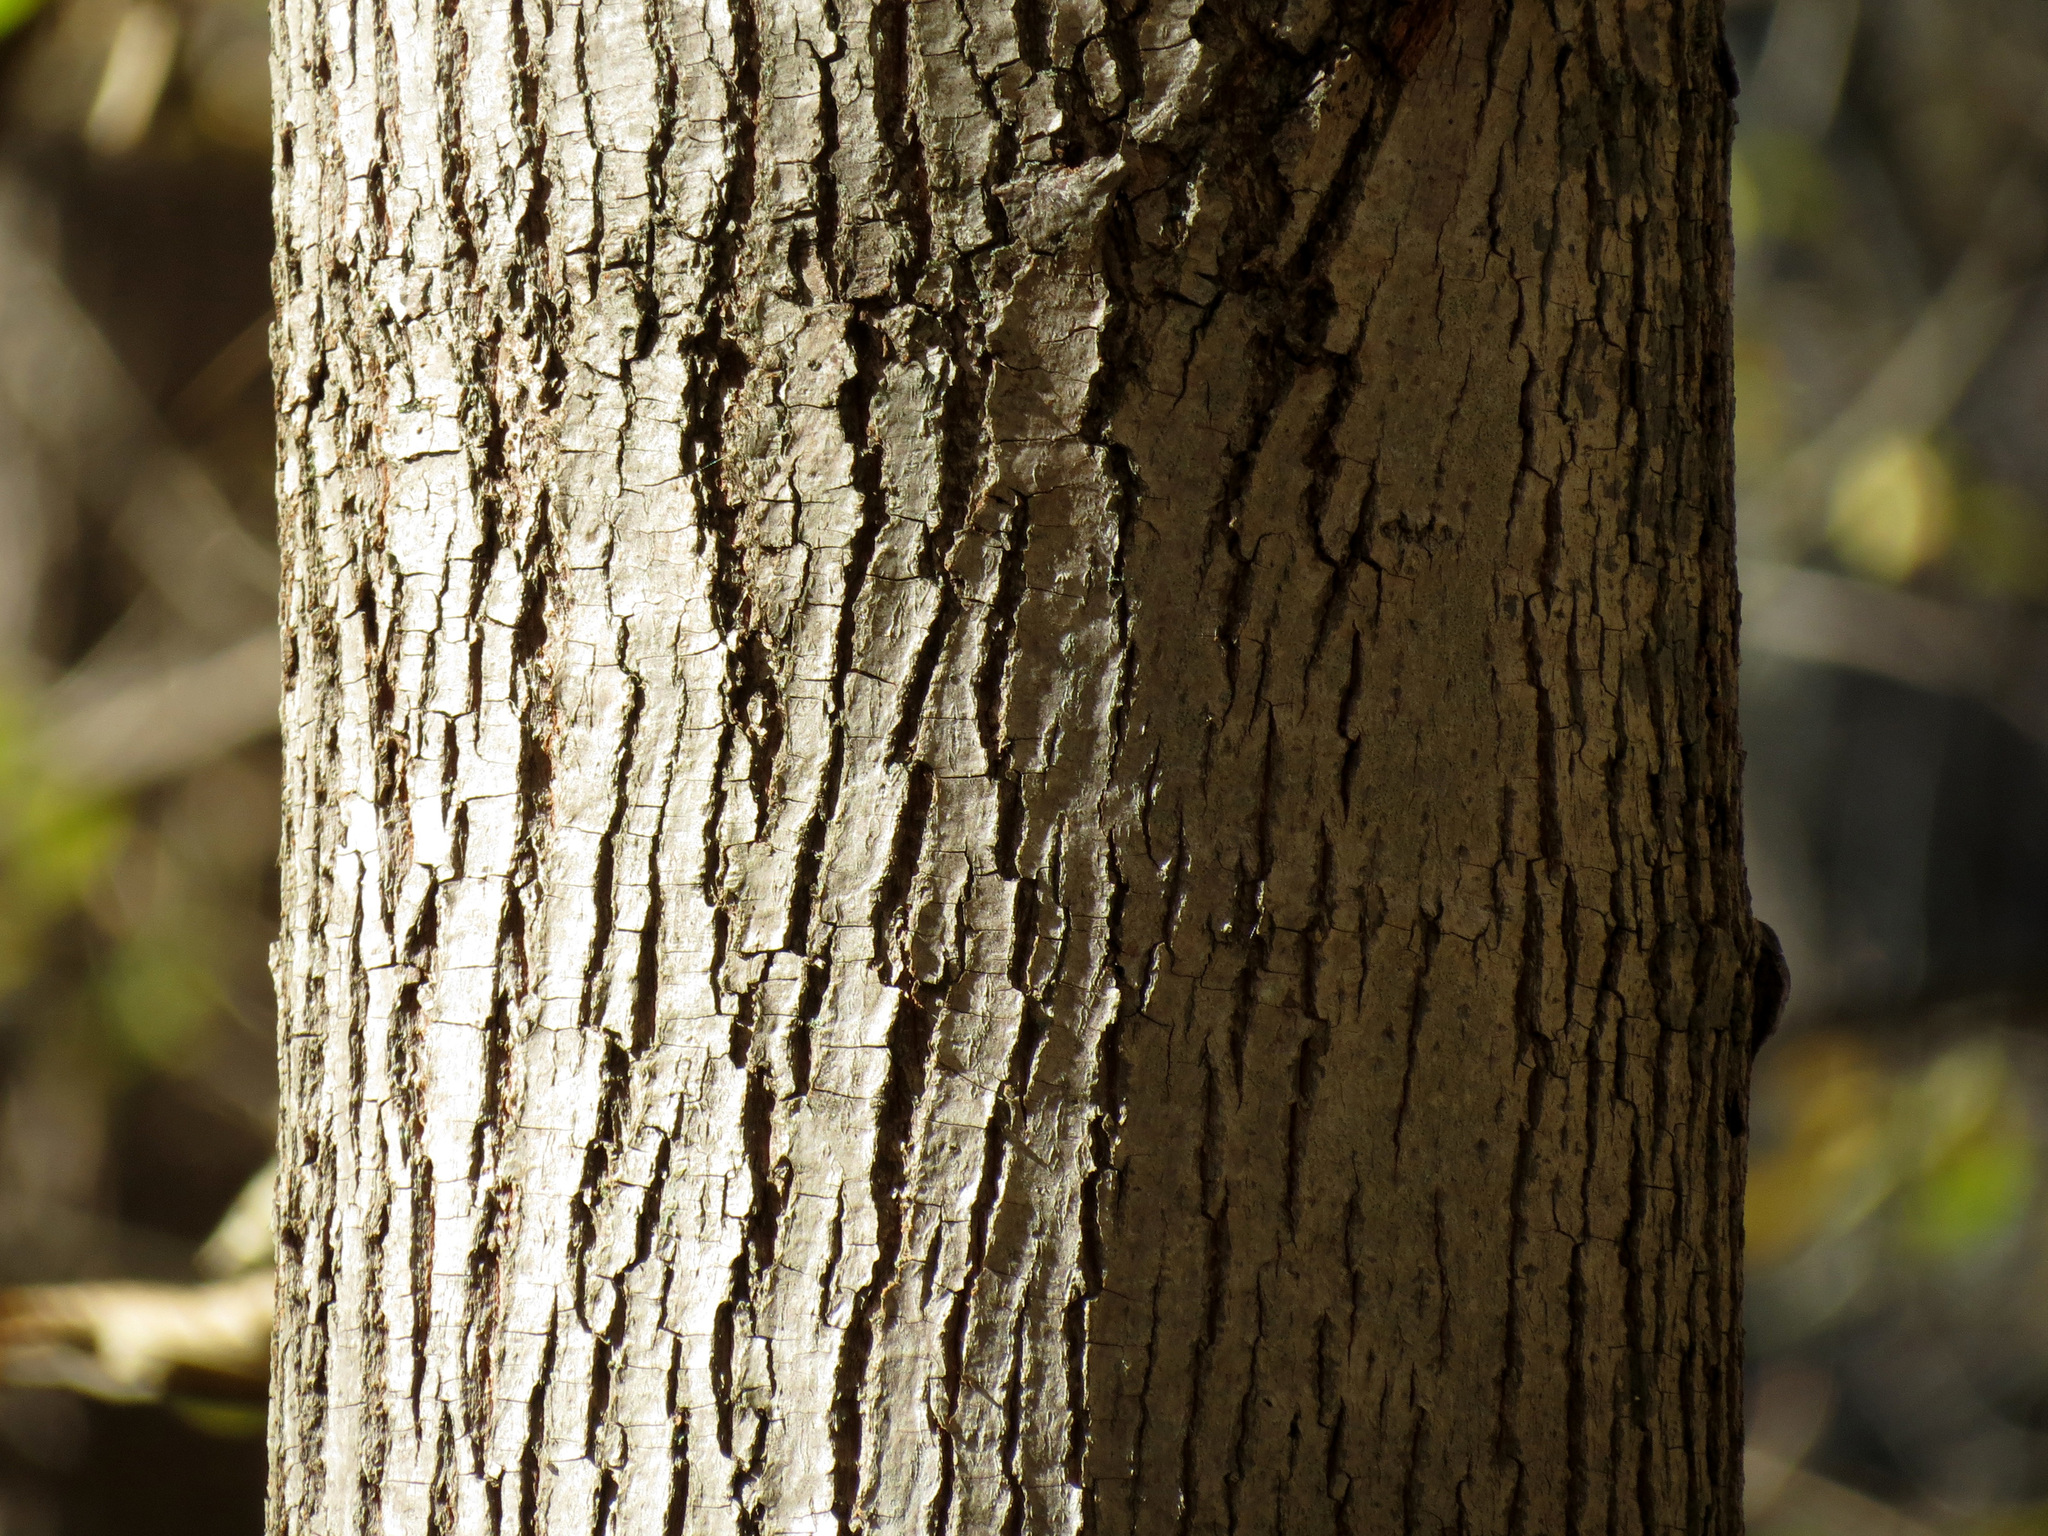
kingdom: Plantae
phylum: Tracheophyta
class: Magnoliopsida
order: Malvales
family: Malvaceae
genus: Tilia
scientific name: Tilia americana
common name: Basswood
